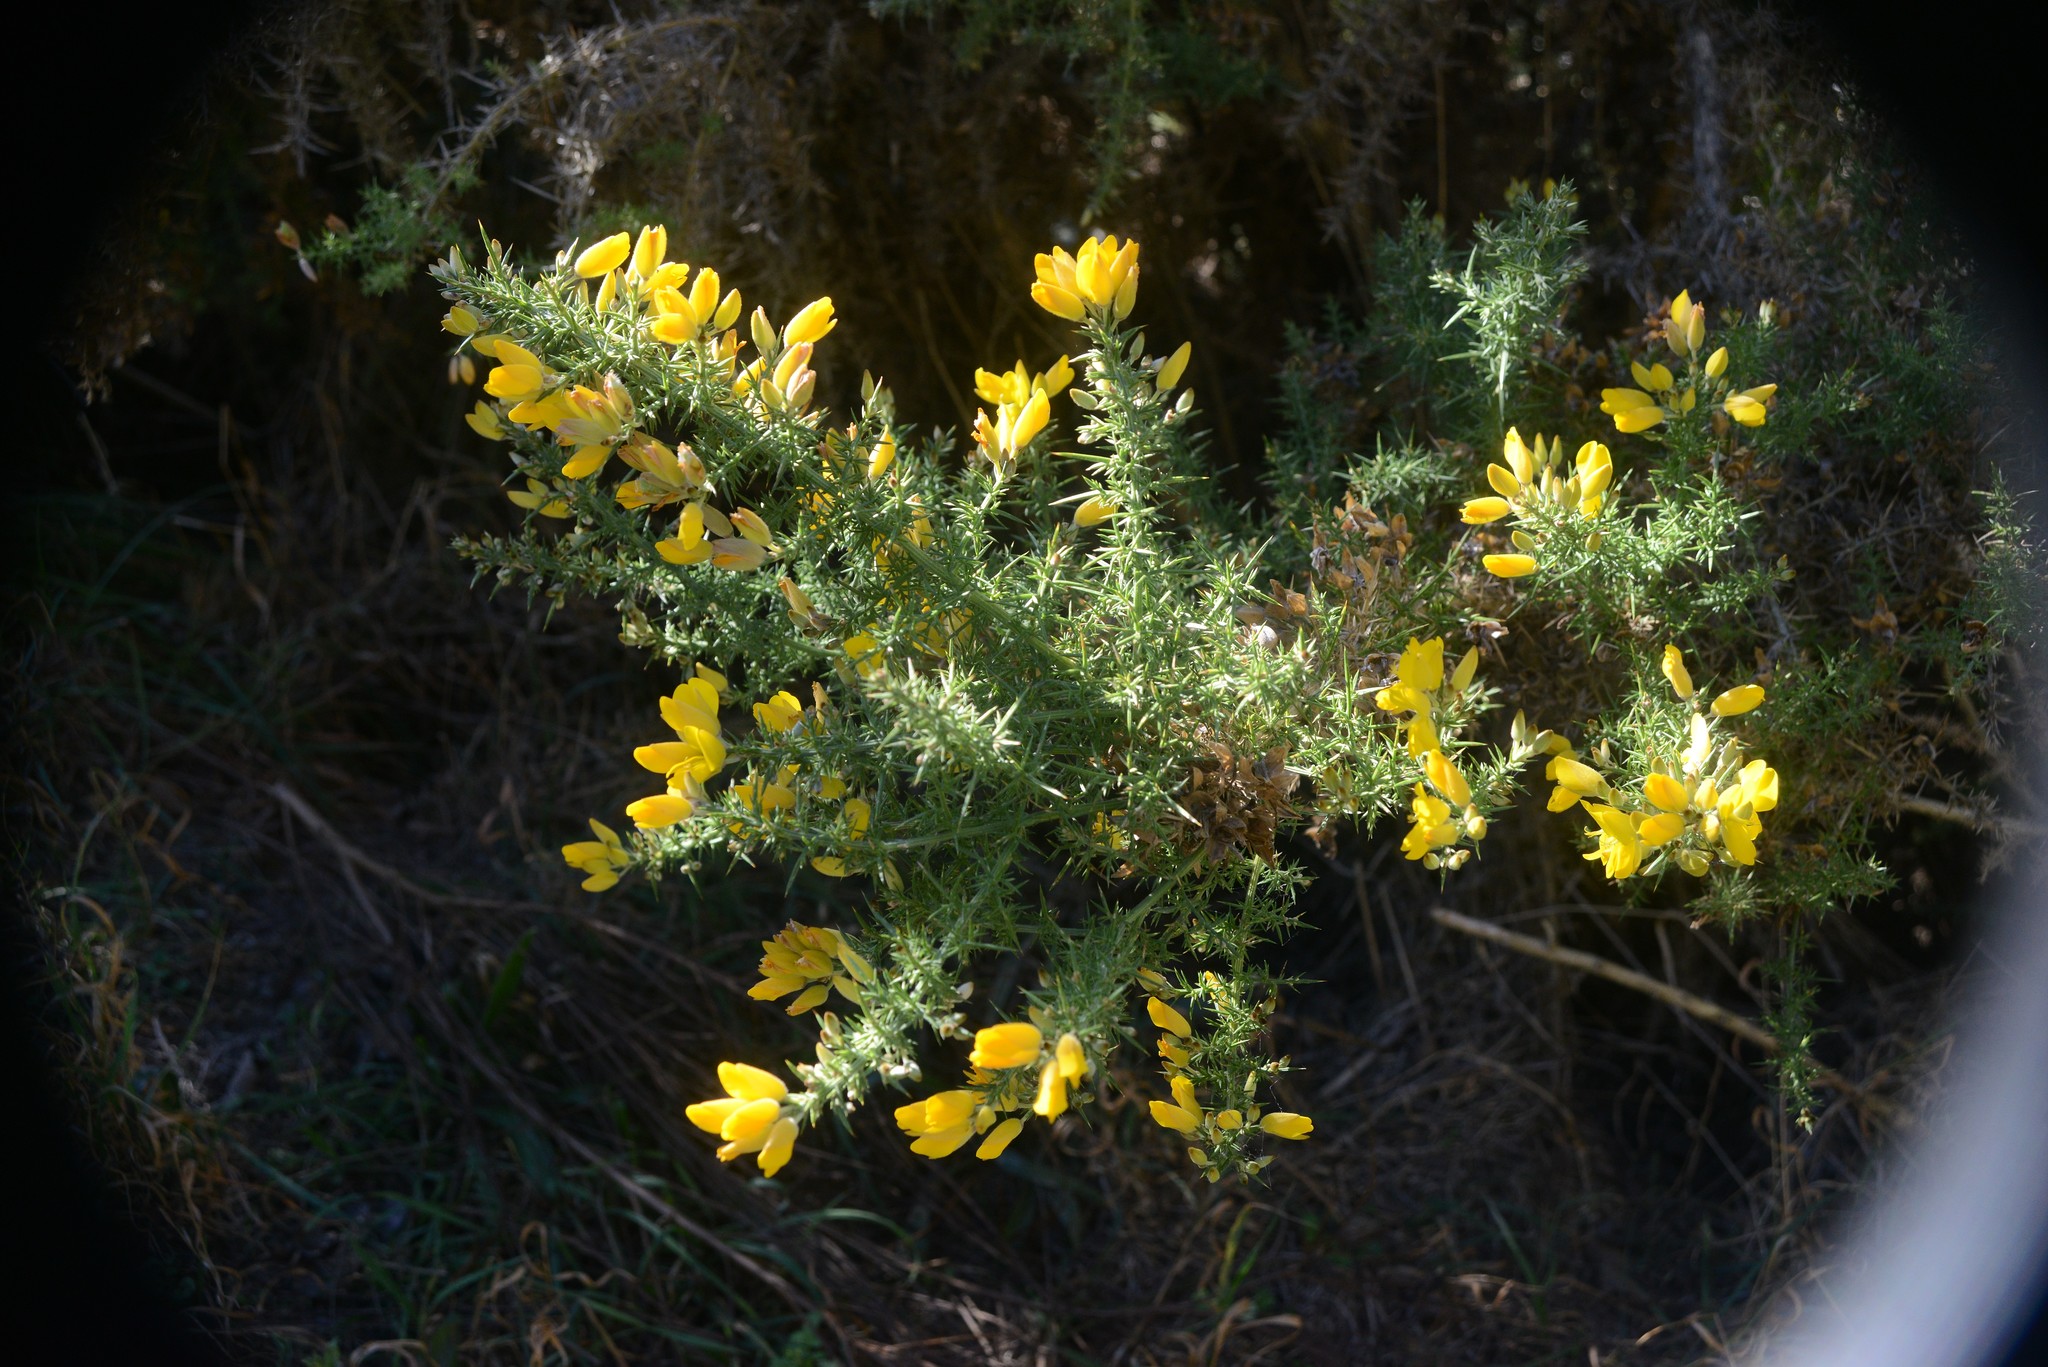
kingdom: Plantae
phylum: Tracheophyta
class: Magnoliopsida
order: Fabales
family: Fabaceae
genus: Ulex
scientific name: Ulex europaeus
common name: Common gorse
